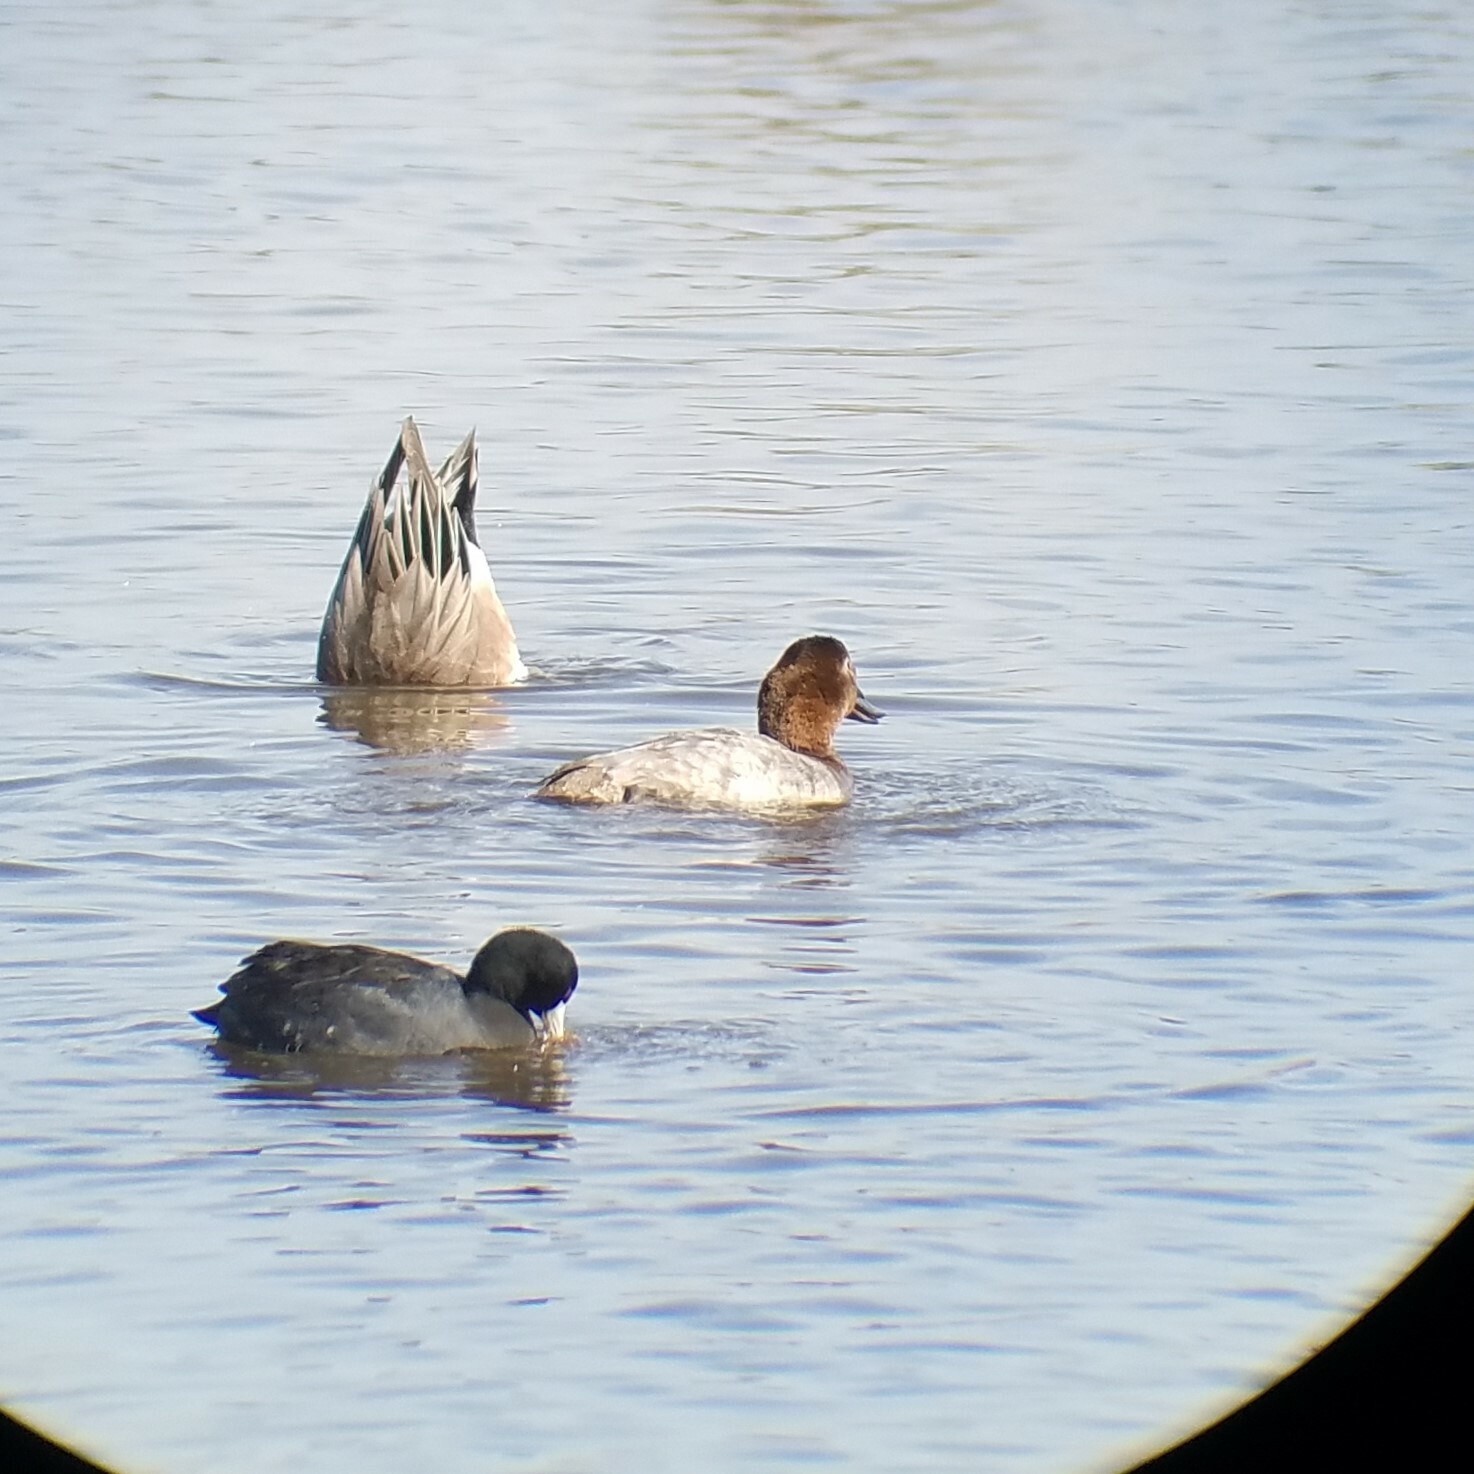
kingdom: Animalia
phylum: Chordata
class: Aves
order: Anseriformes
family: Anatidae
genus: Aythya
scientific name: Aythya valisineria
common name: Canvasback
